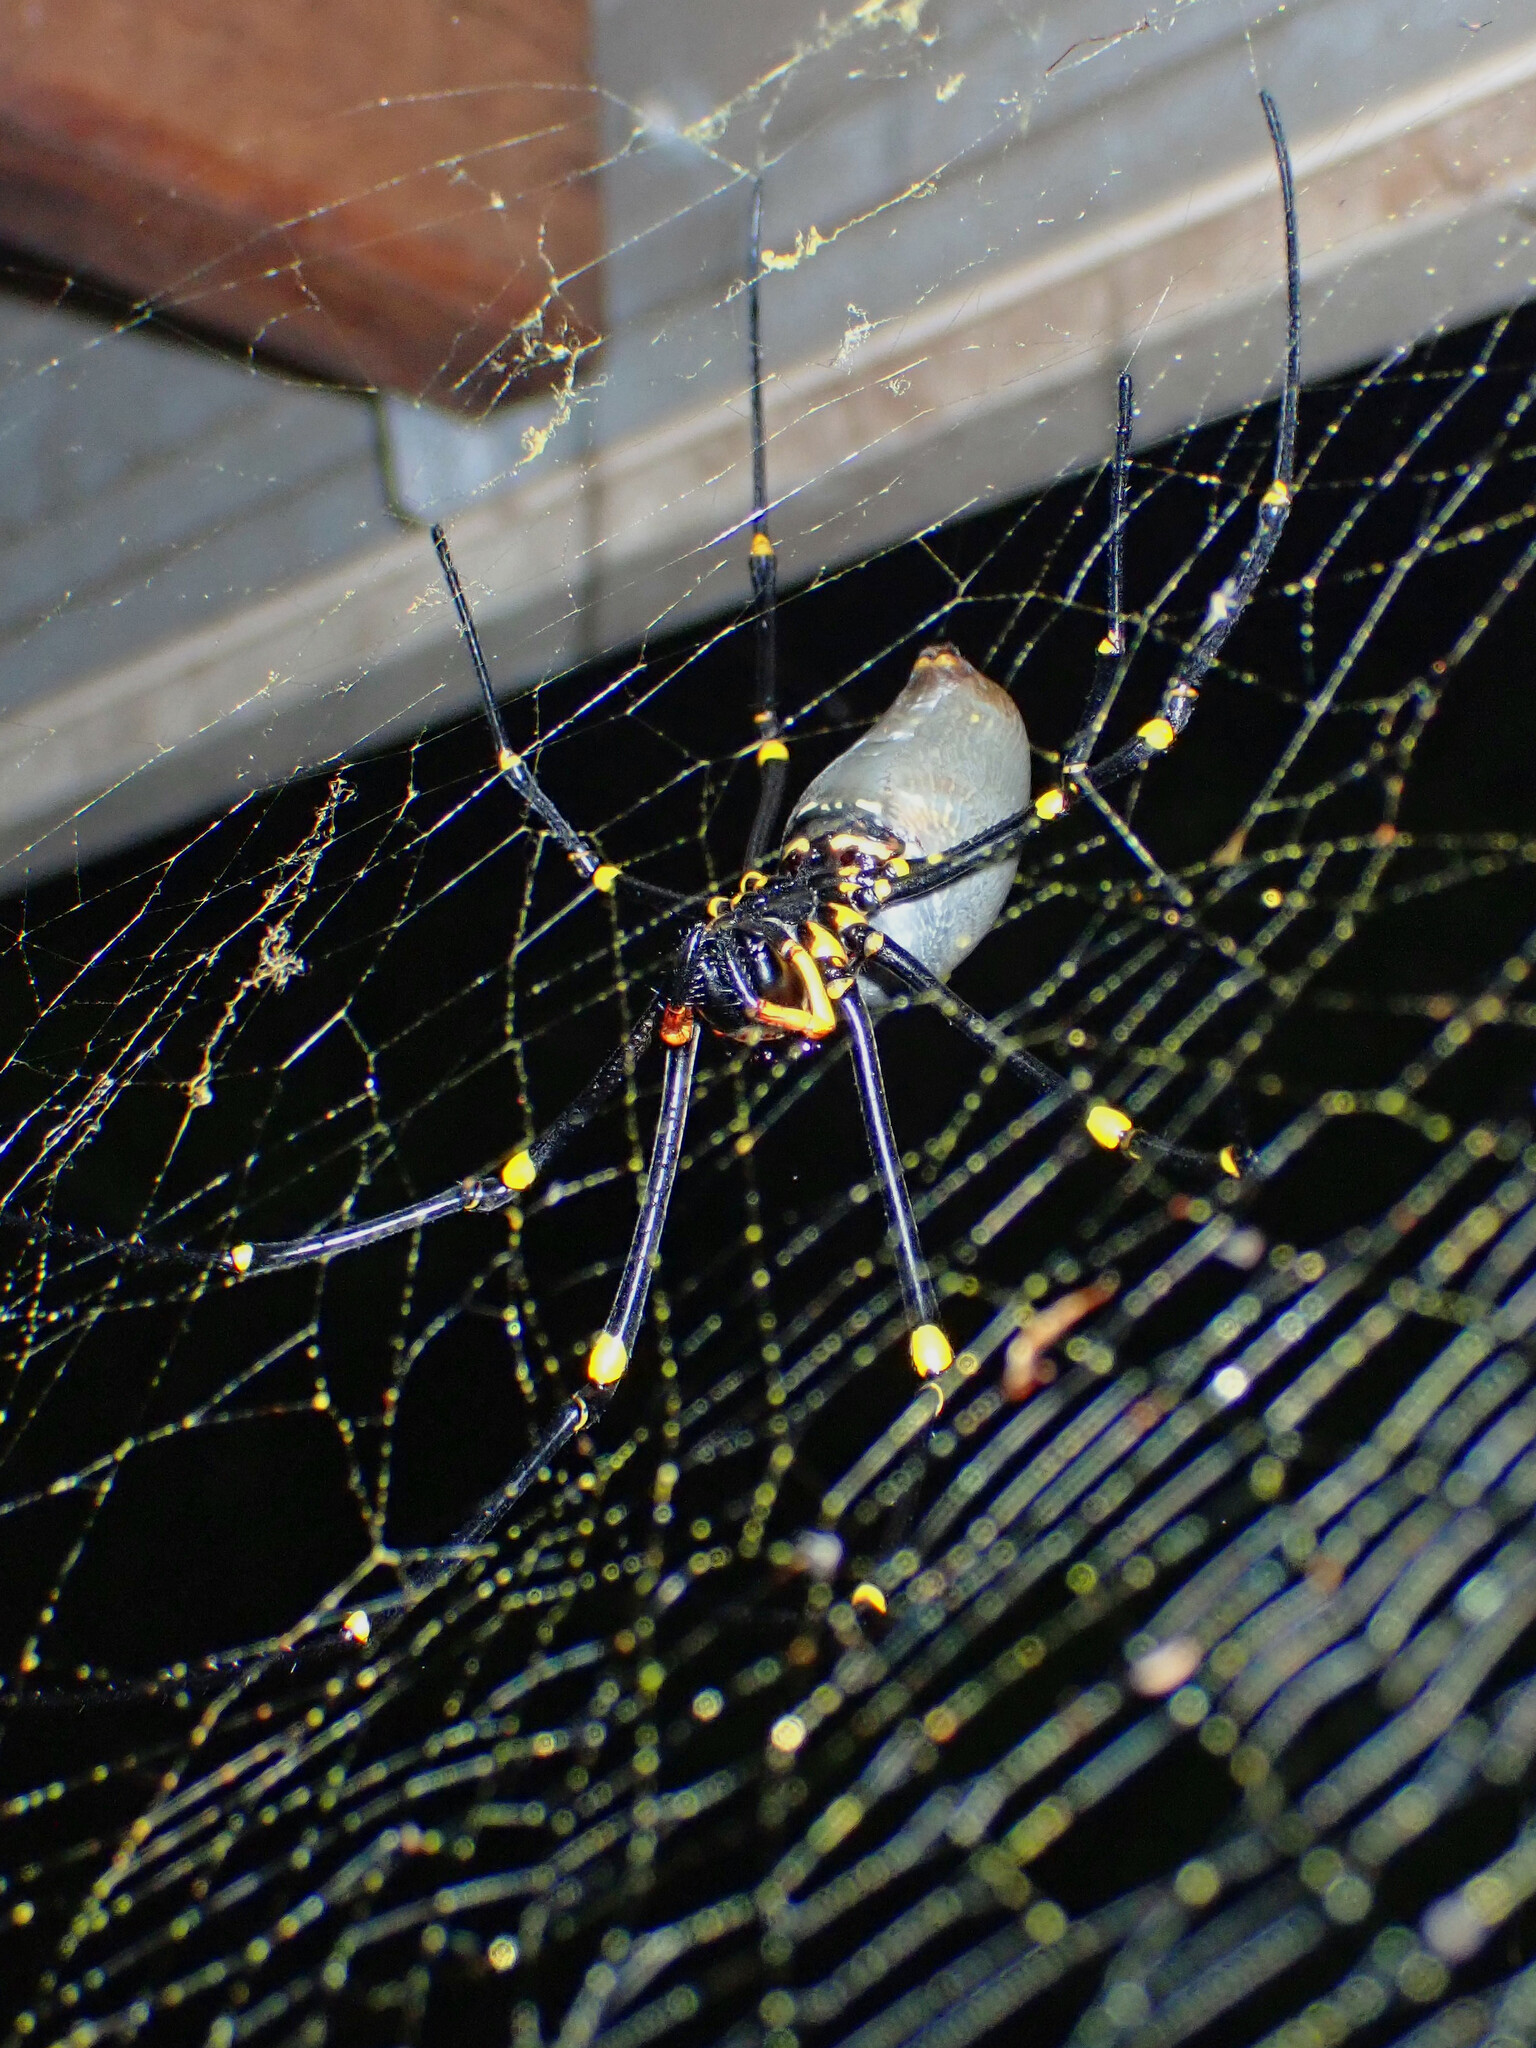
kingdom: Animalia
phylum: Arthropoda
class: Arachnida
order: Araneae
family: Araneidae
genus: Nephila
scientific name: Nephila pilipes
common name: Giant golden orb weaver
